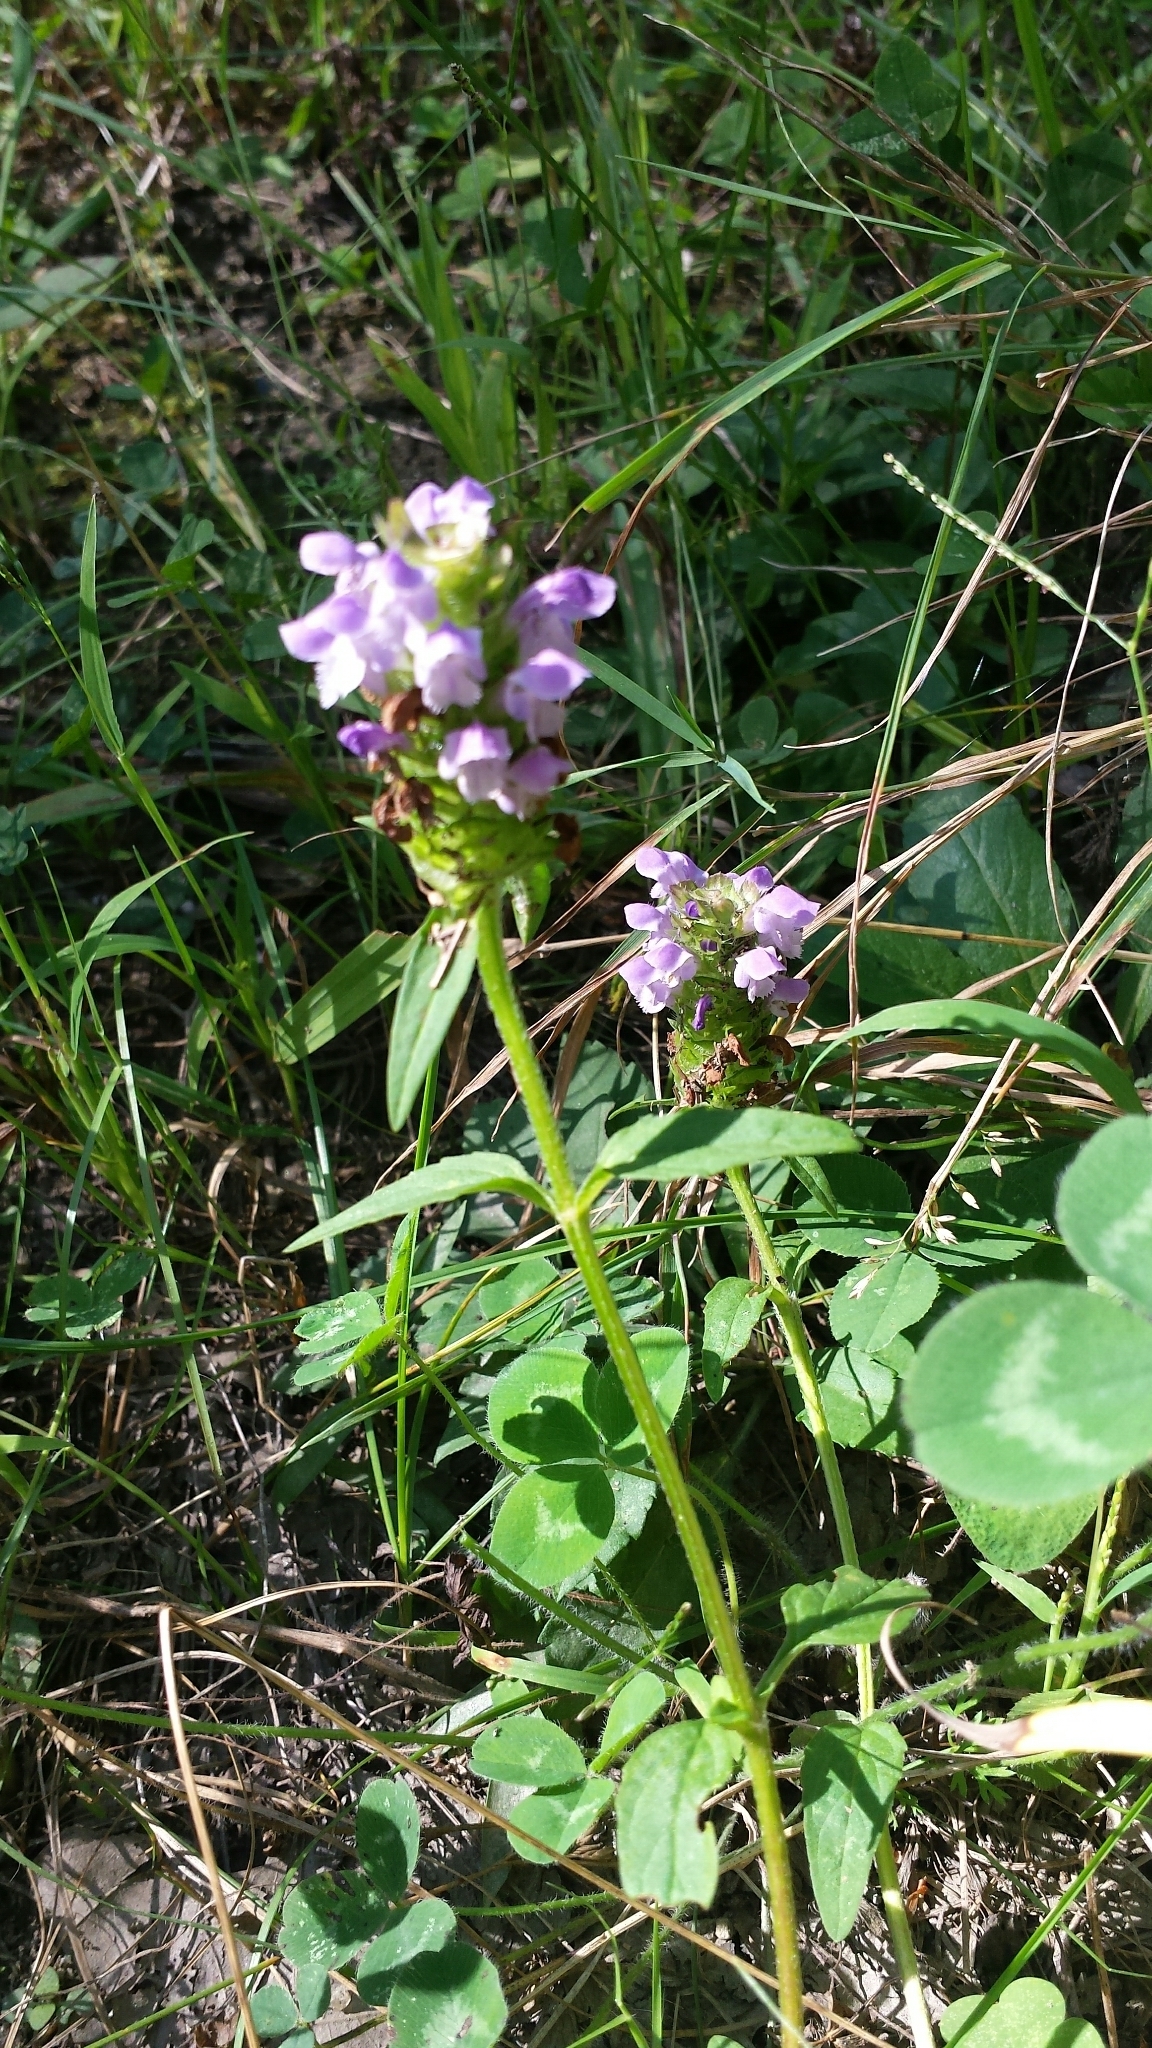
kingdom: Plantae
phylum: Tracheophyta
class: Magnoliopsida
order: Lamiales
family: Lamiaceae
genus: Prunella
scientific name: Prunella vulgaris
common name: Heal-all
